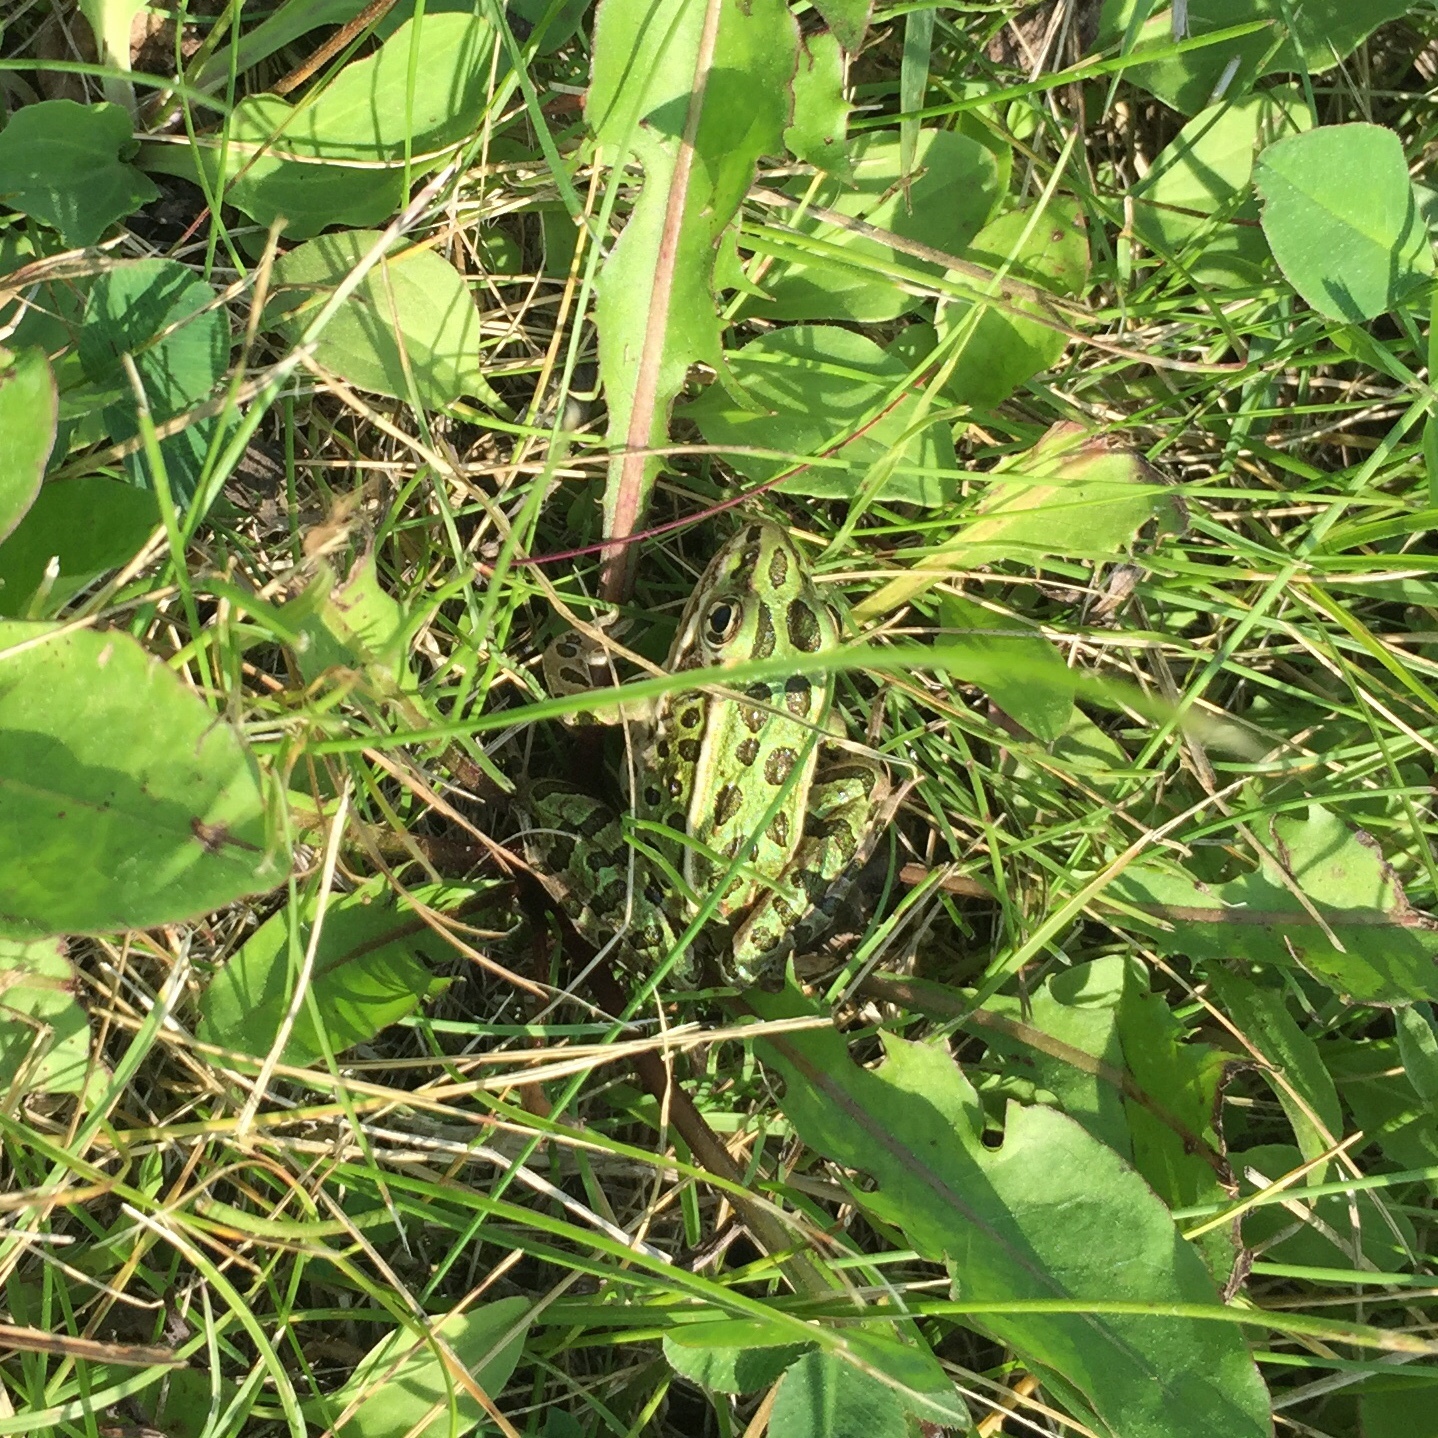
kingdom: Animalia
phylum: Chordata
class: Amphibia
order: Anura
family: Ranidae
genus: Lithobates
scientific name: Lithobates pipiens
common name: Northern leopard frog
